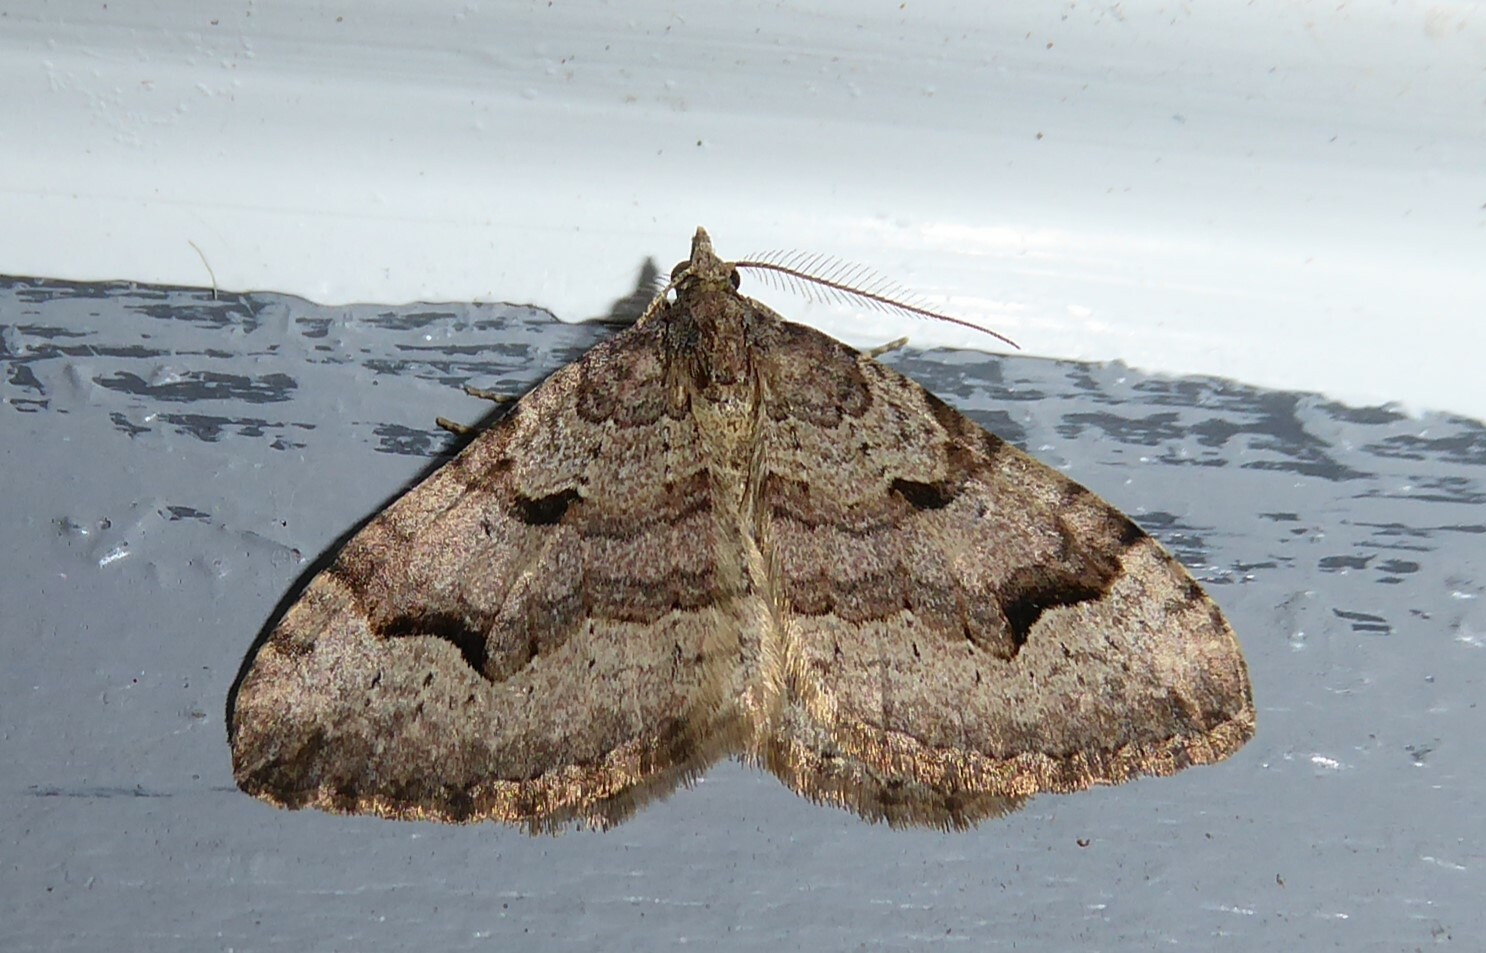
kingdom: Animalia
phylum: Arthropoda
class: Insecta
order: Lepidoptera
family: Geometridae
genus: Epyaxa
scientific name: Epyaxa rosearia
